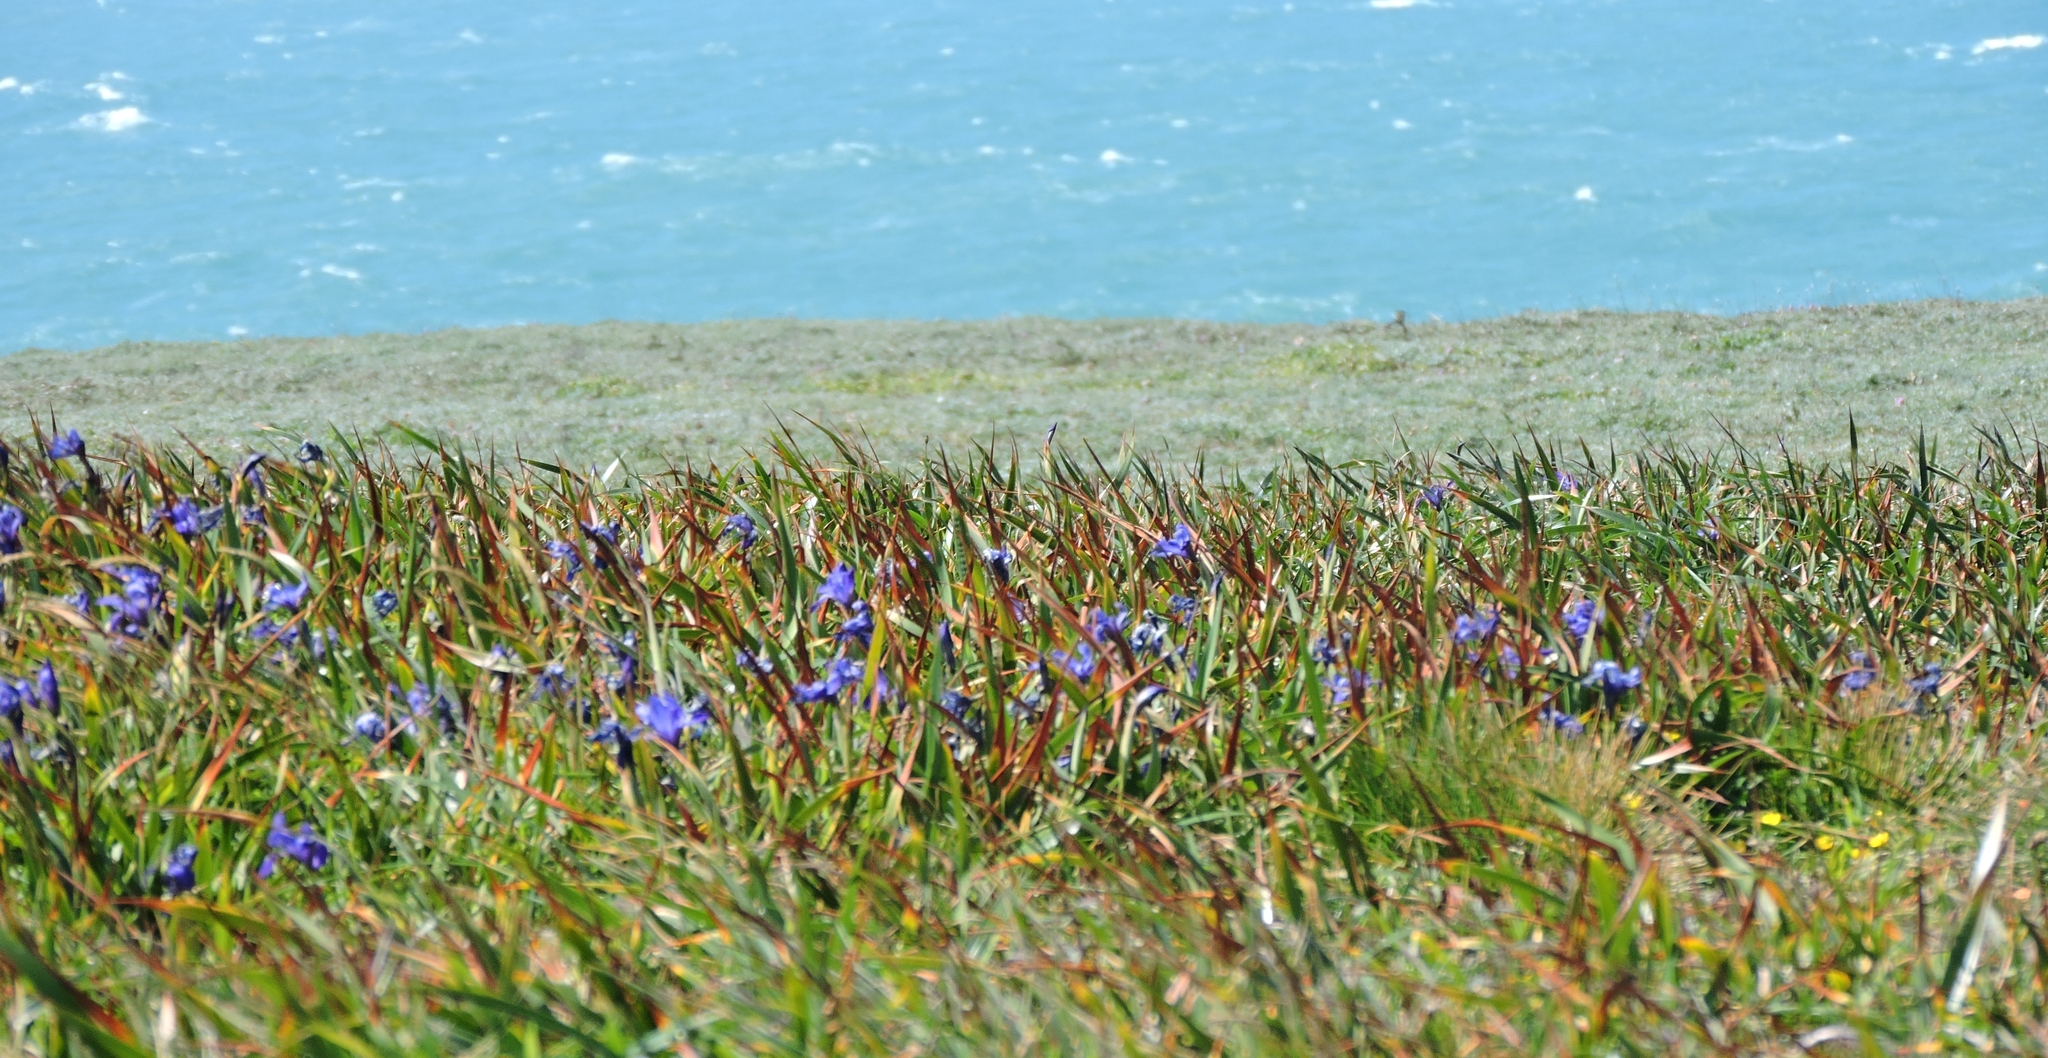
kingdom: Plantae
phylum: Tracheophyta
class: Liliopsida
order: Asparagales
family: Iridaceae
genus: Iris
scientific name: Iris douglasiana
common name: Marin iris
